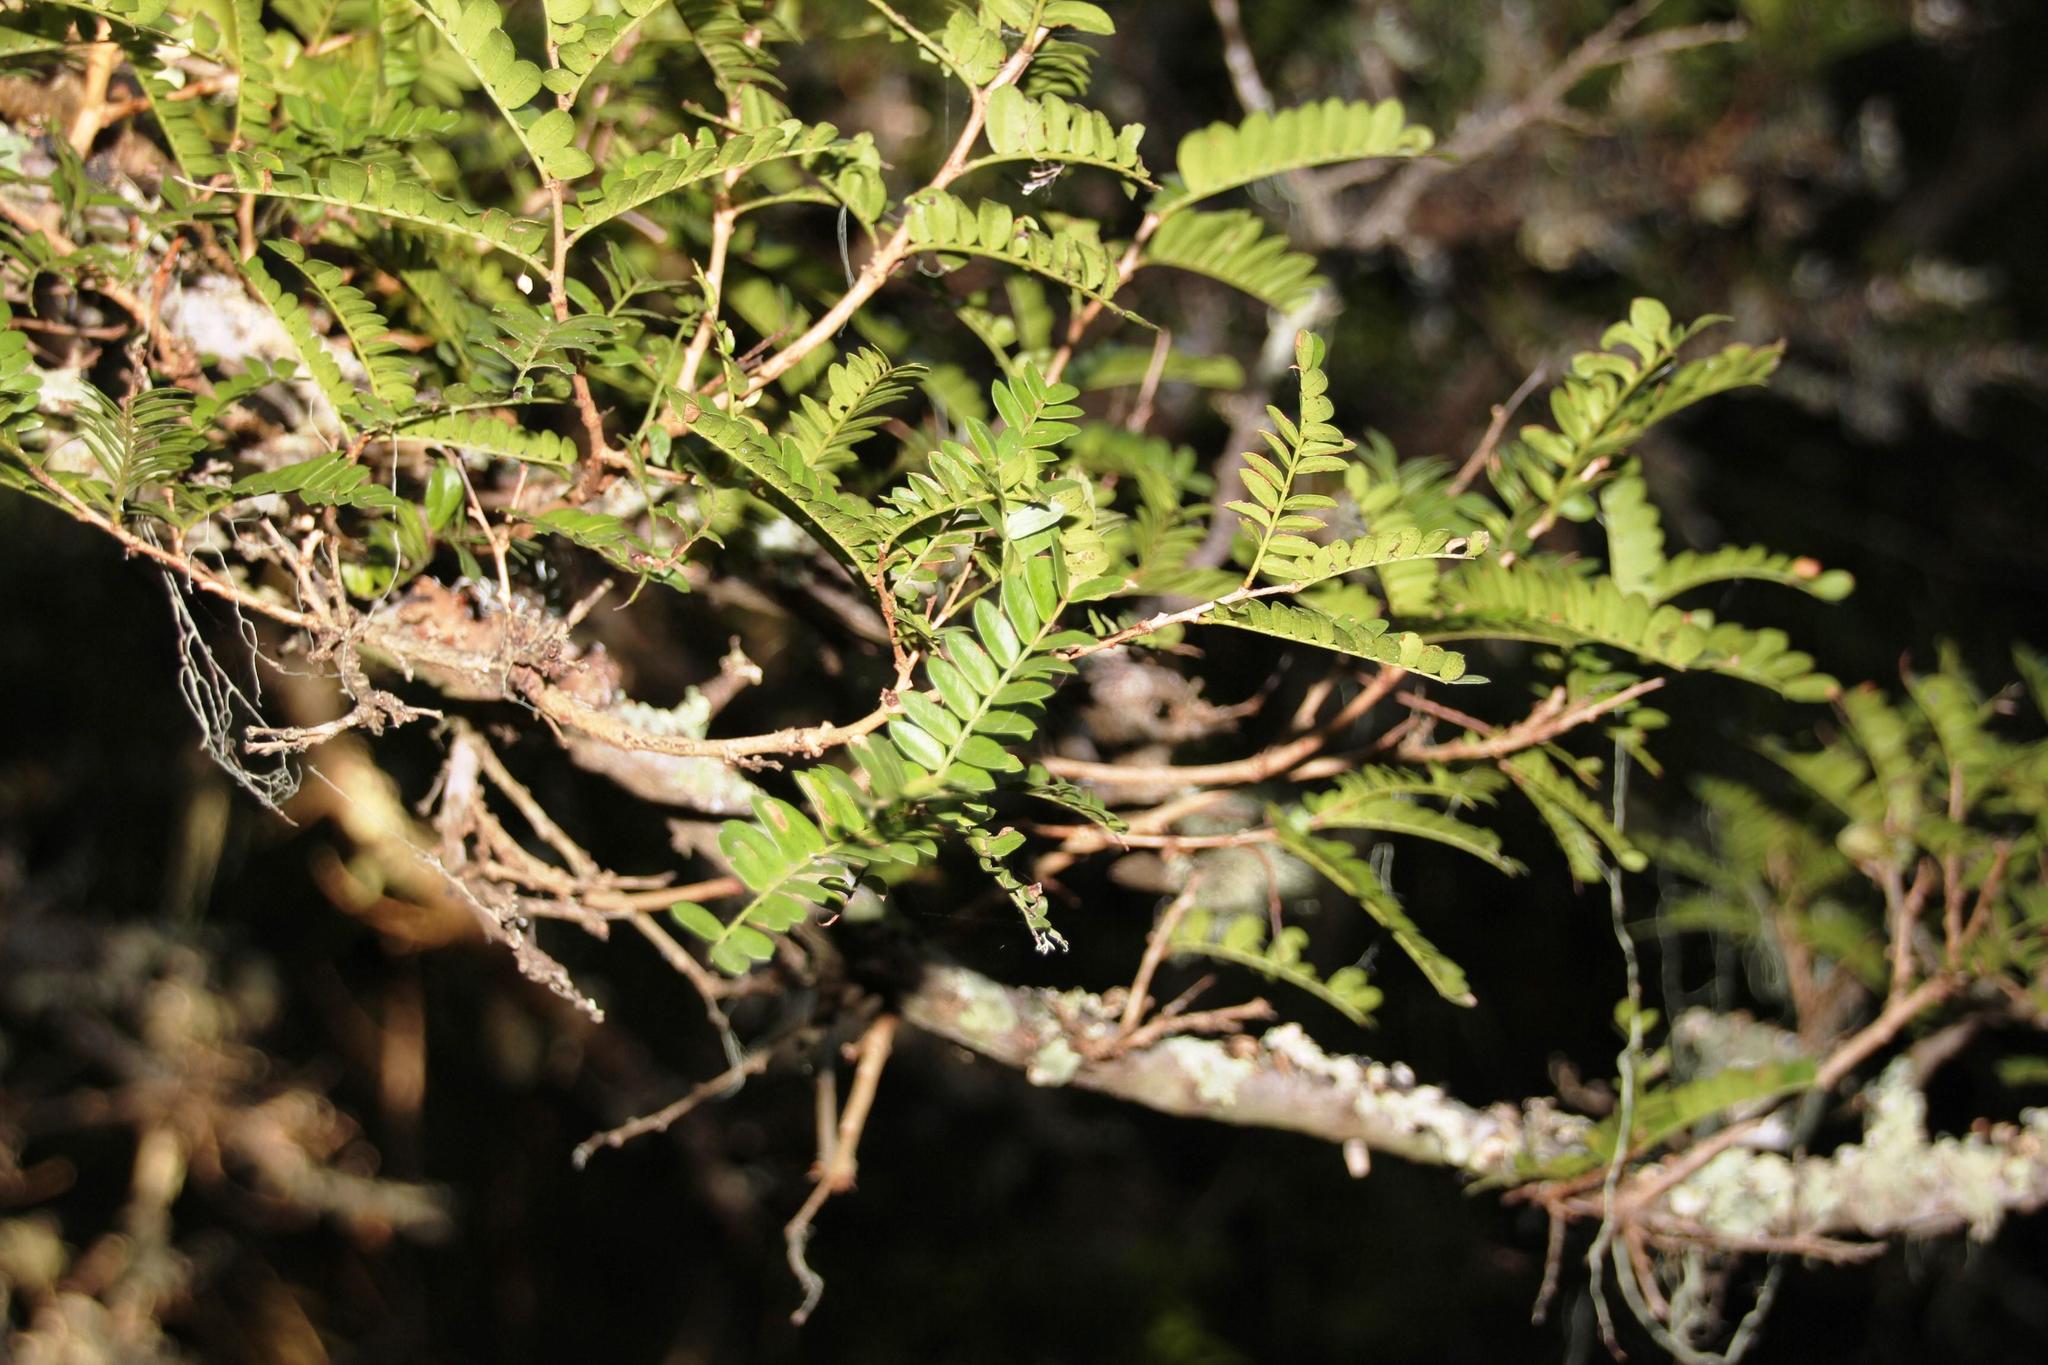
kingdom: Plantae
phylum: Tracheophyta
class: Magnoliopsida
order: Fabales
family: Fabaceae
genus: Schotia
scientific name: Schotia afra
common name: Hottentot's bean
